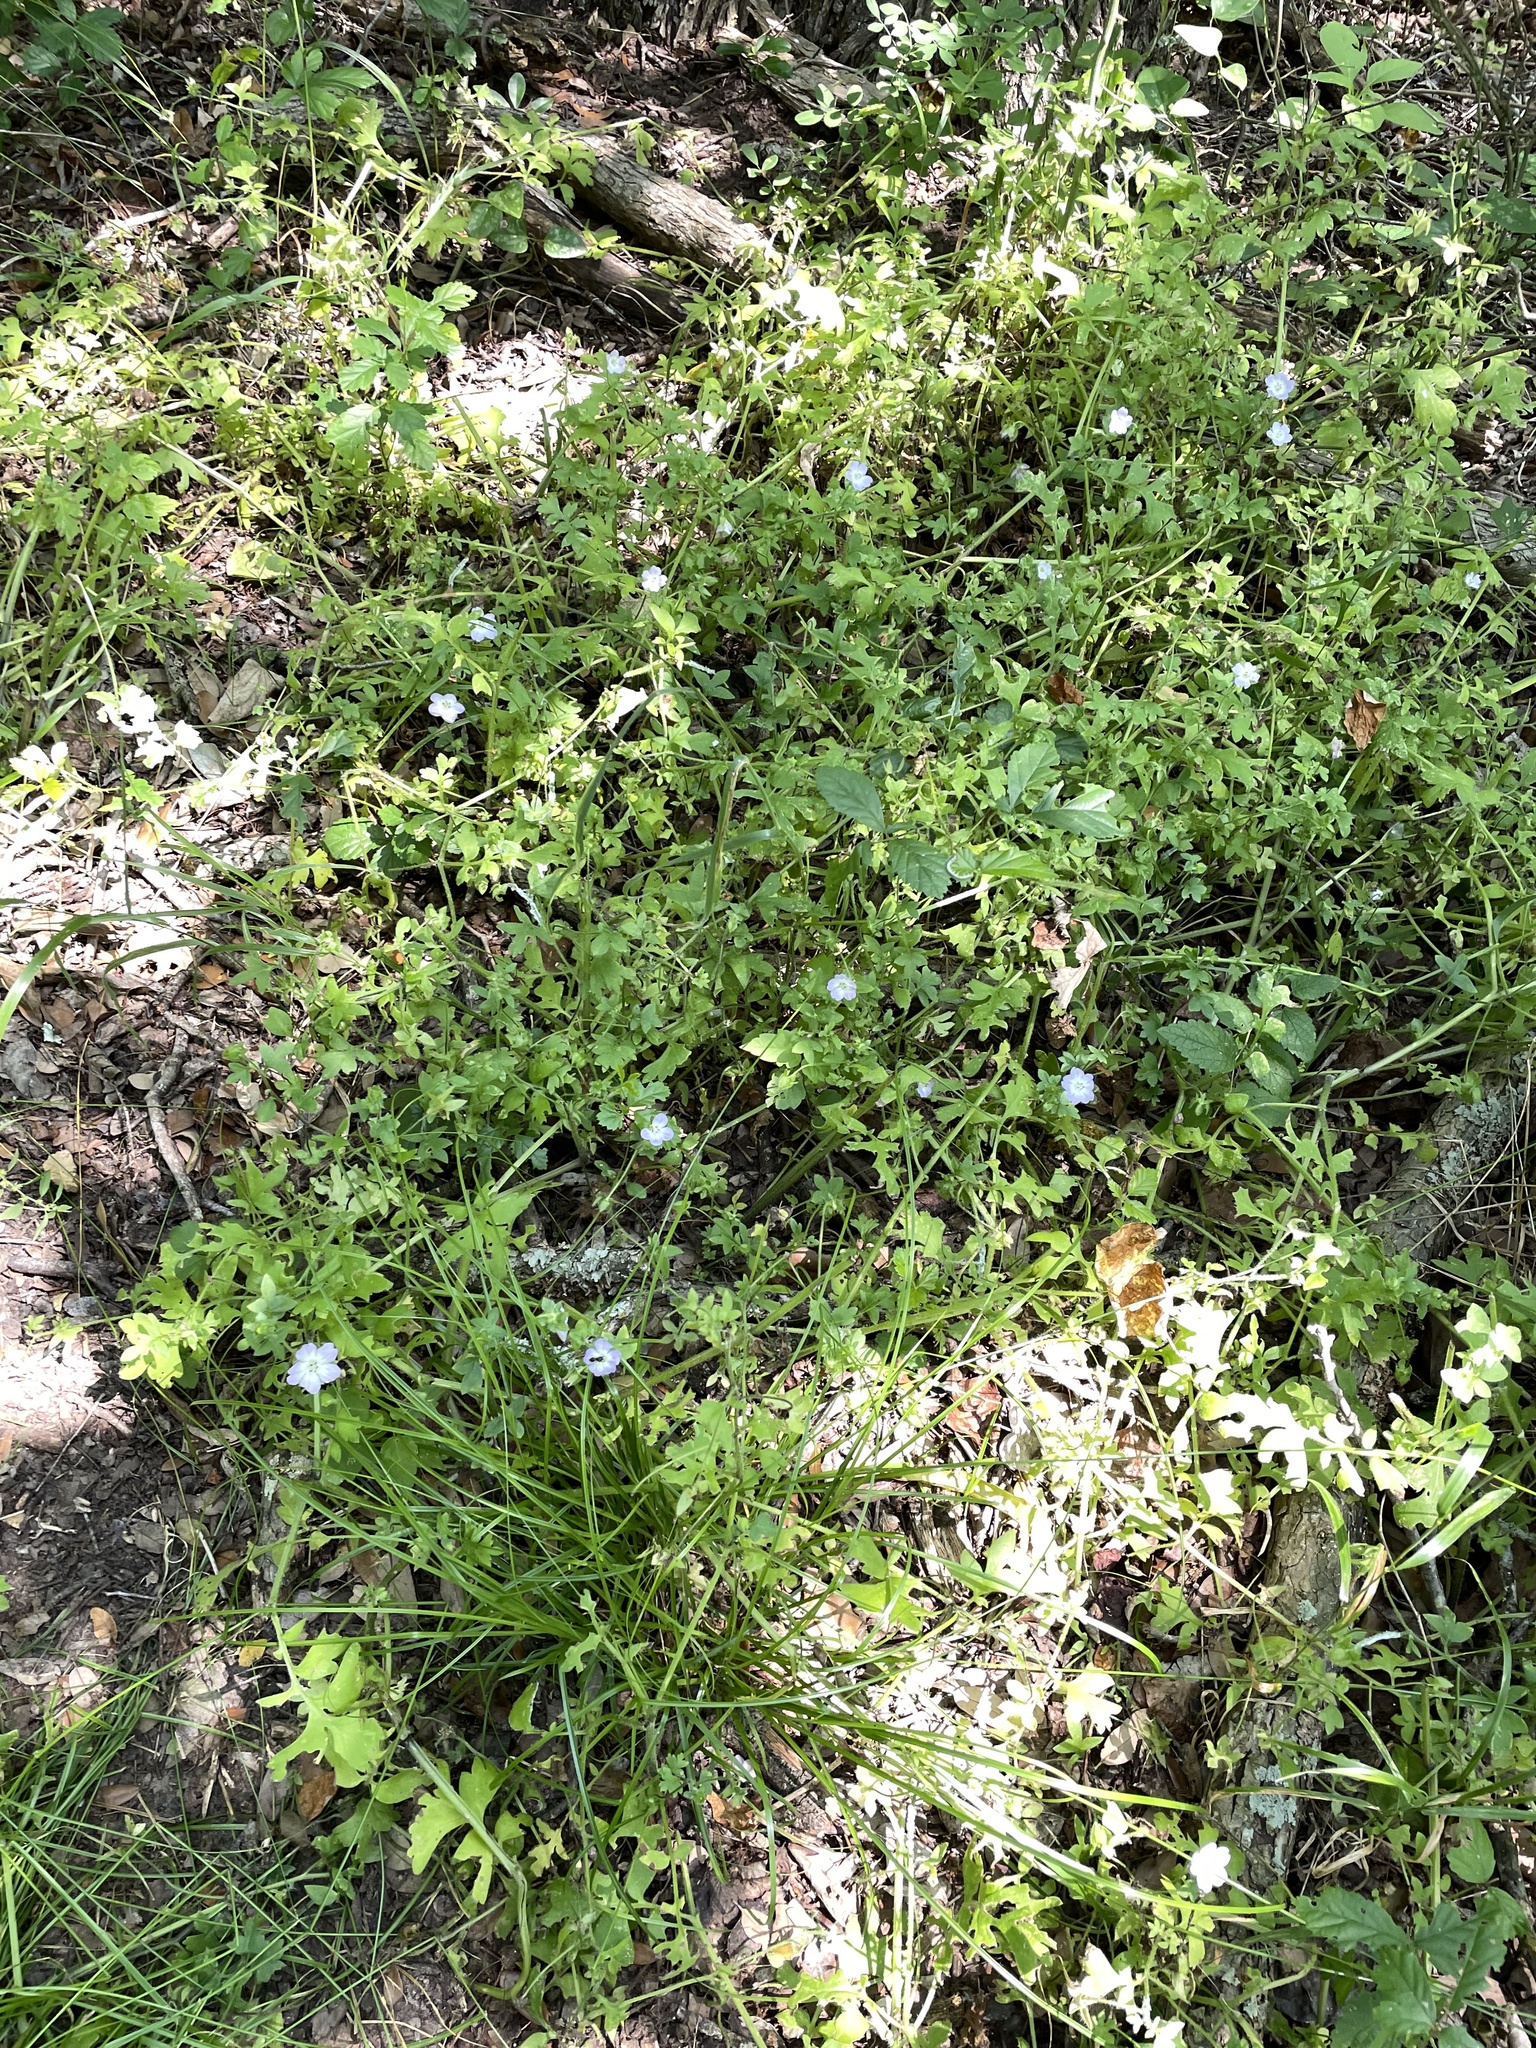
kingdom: Plantae
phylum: Tracheophyta
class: Magnoliopsida
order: Boraginales
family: Hydrophyllaceae
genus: Nemophila
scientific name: Nemophila phacelioides
